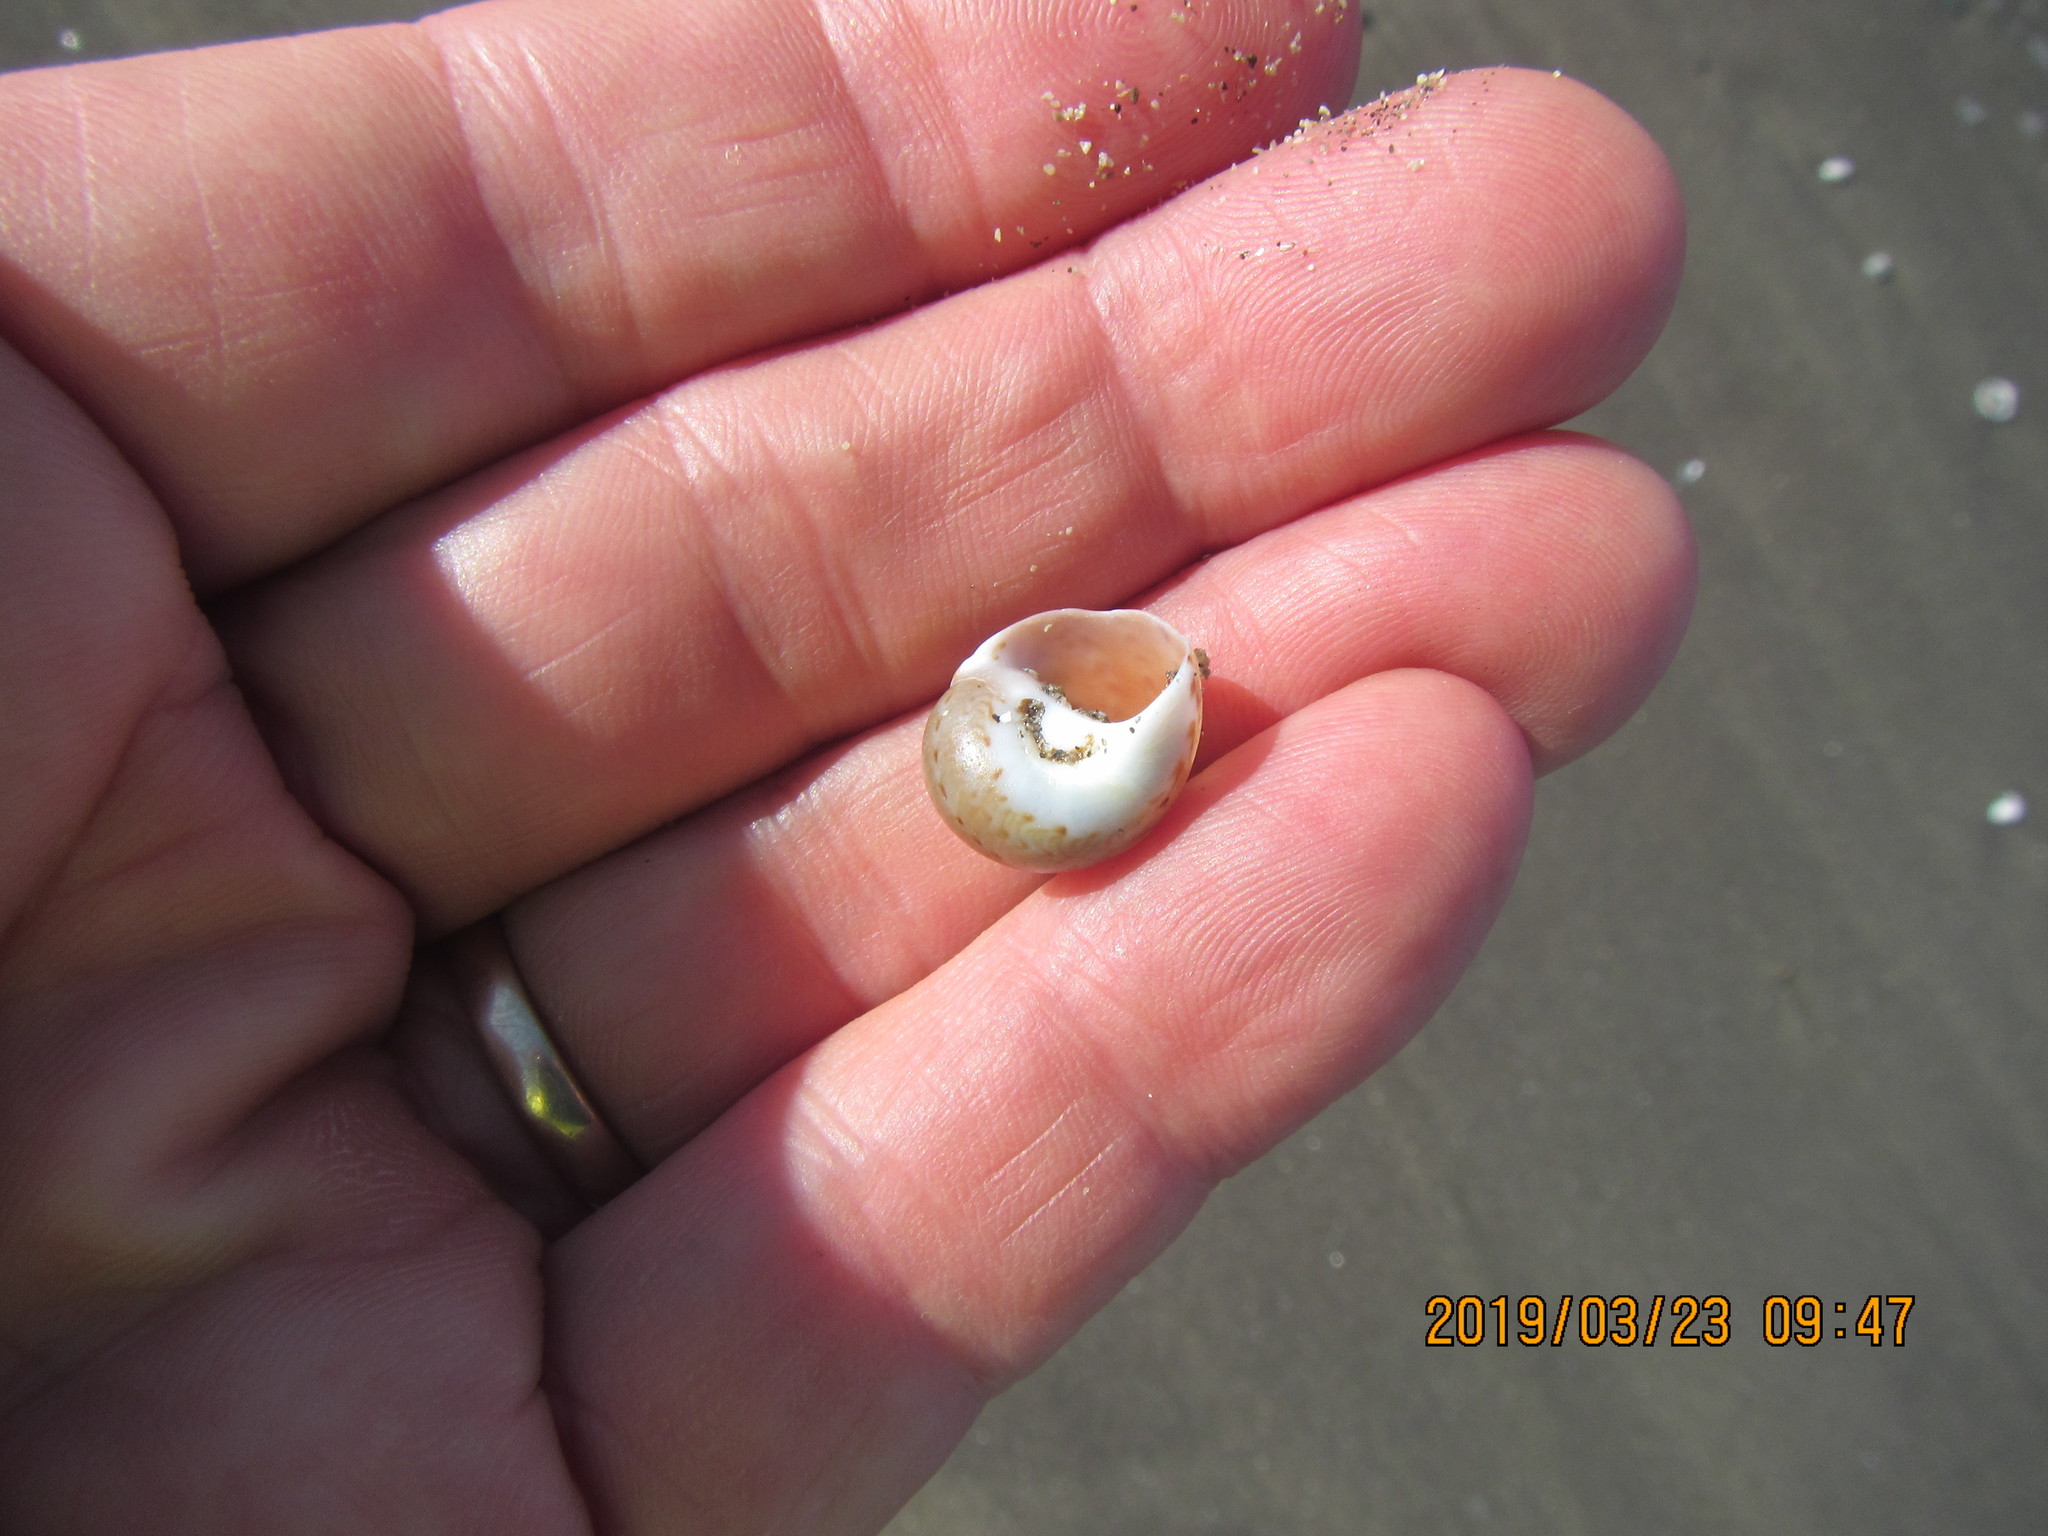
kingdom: Animalia
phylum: Mollusca
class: Gastropoda
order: Littorinimorpha
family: Naticidae
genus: Tanea
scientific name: Tanea zelandica
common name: New zealand moonsnail
